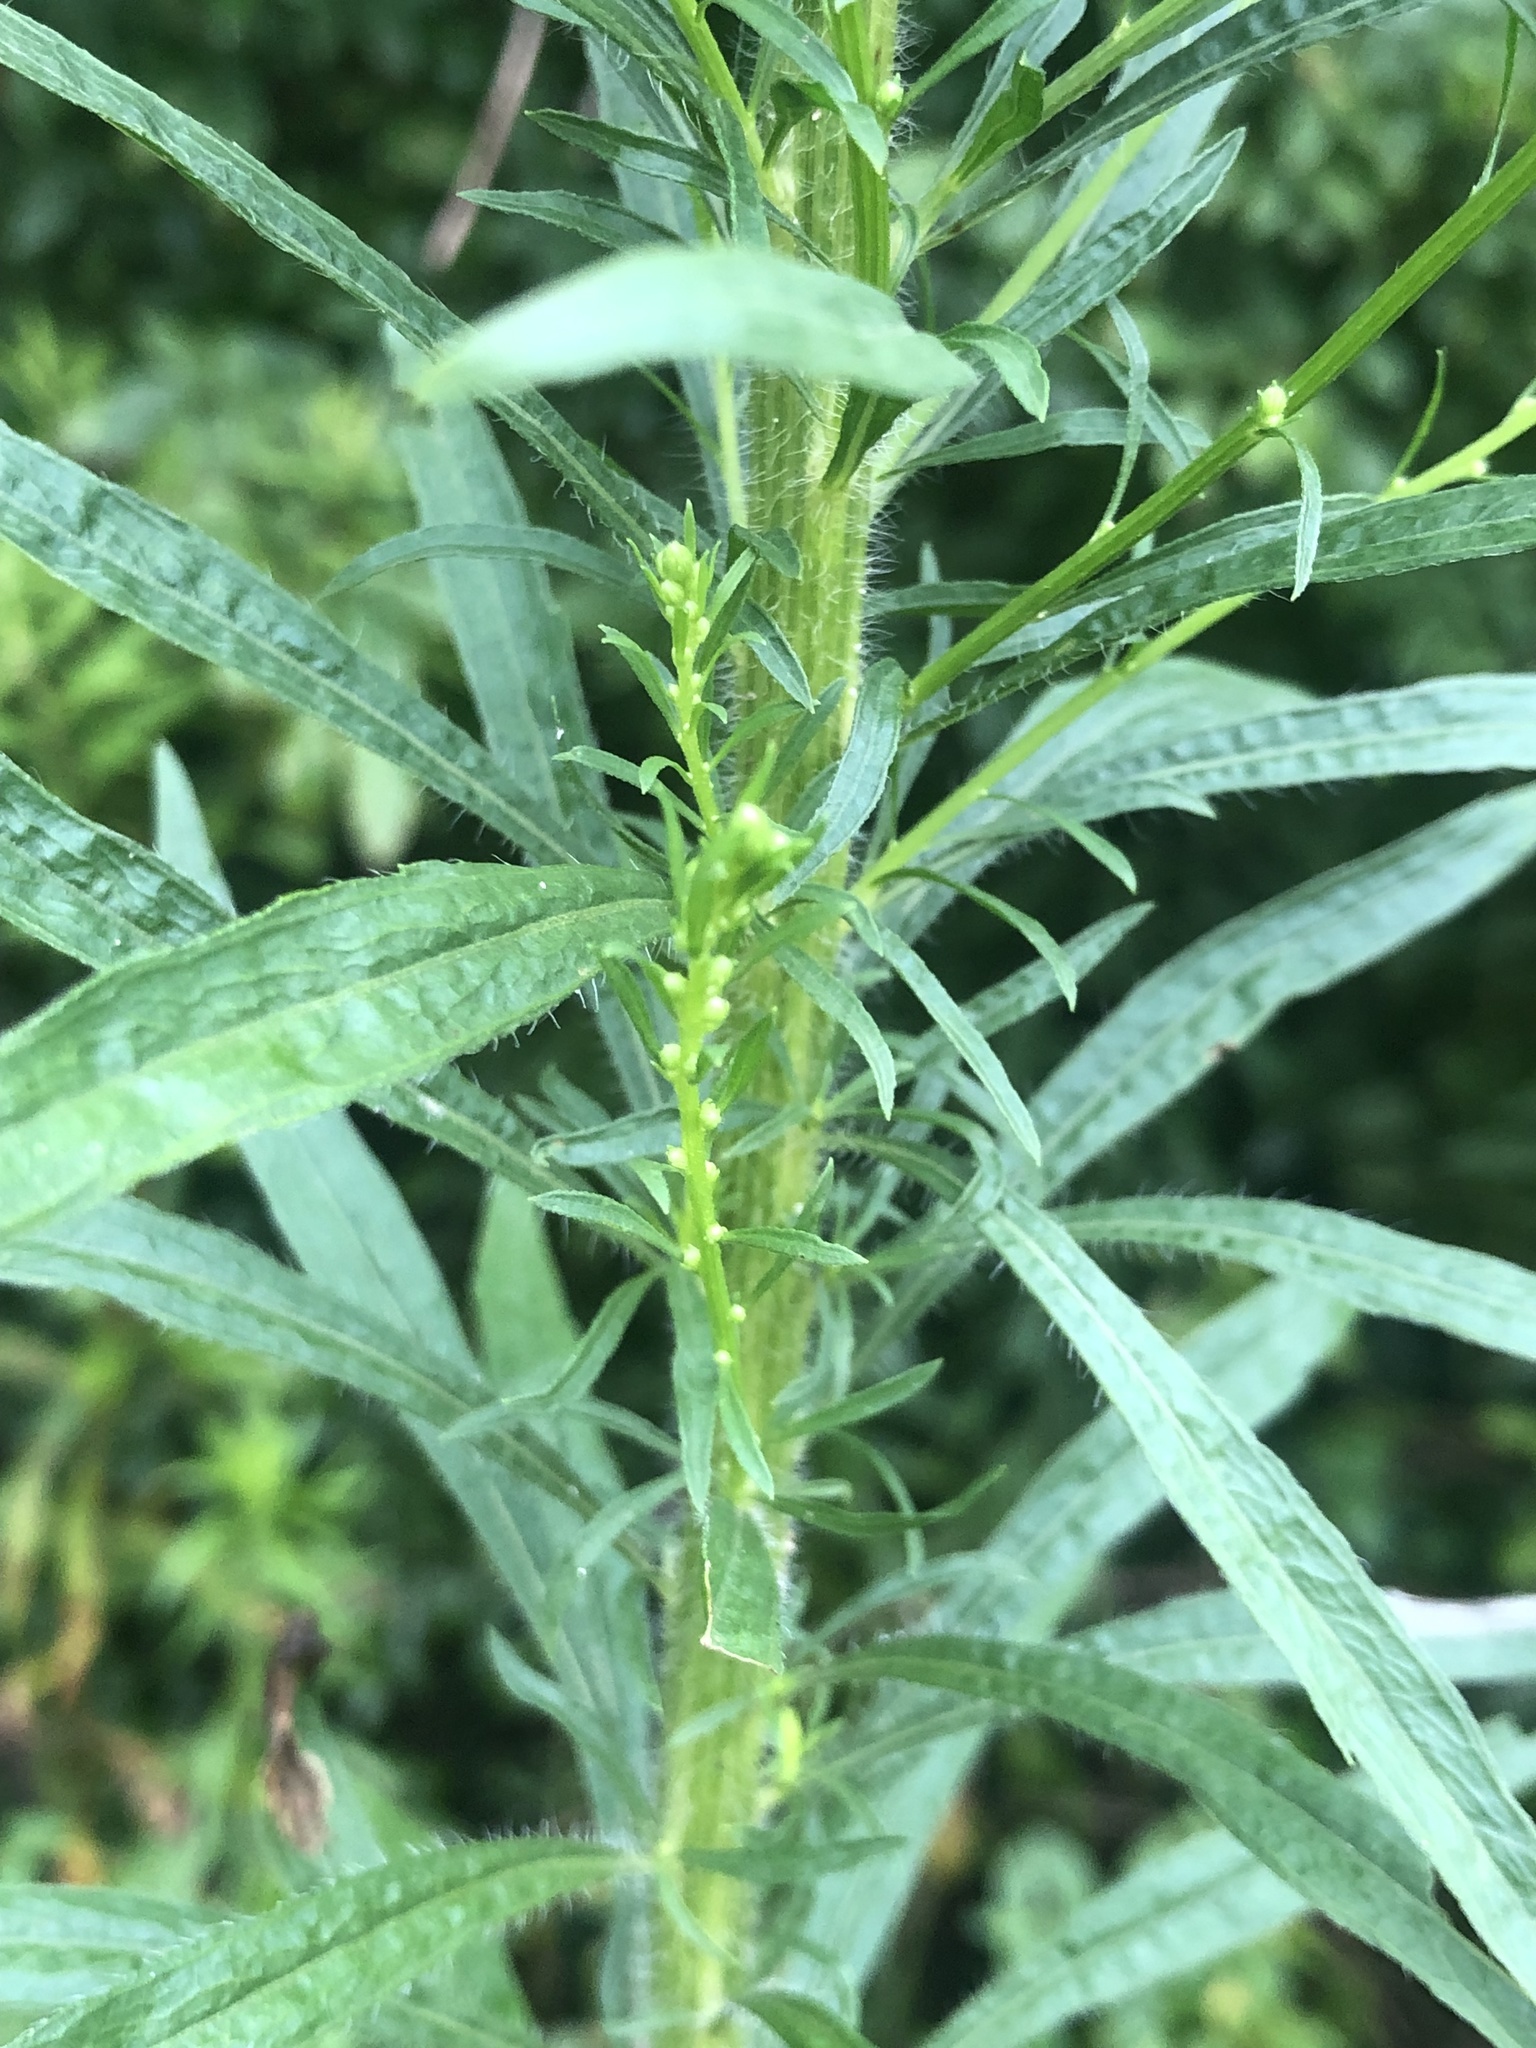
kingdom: Plantae
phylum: Tracheophyta
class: Magnoliopsida
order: Asterales
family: Asteraceae
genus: Erigeron
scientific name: Erigeron canadensis
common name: Canadian fleabane
